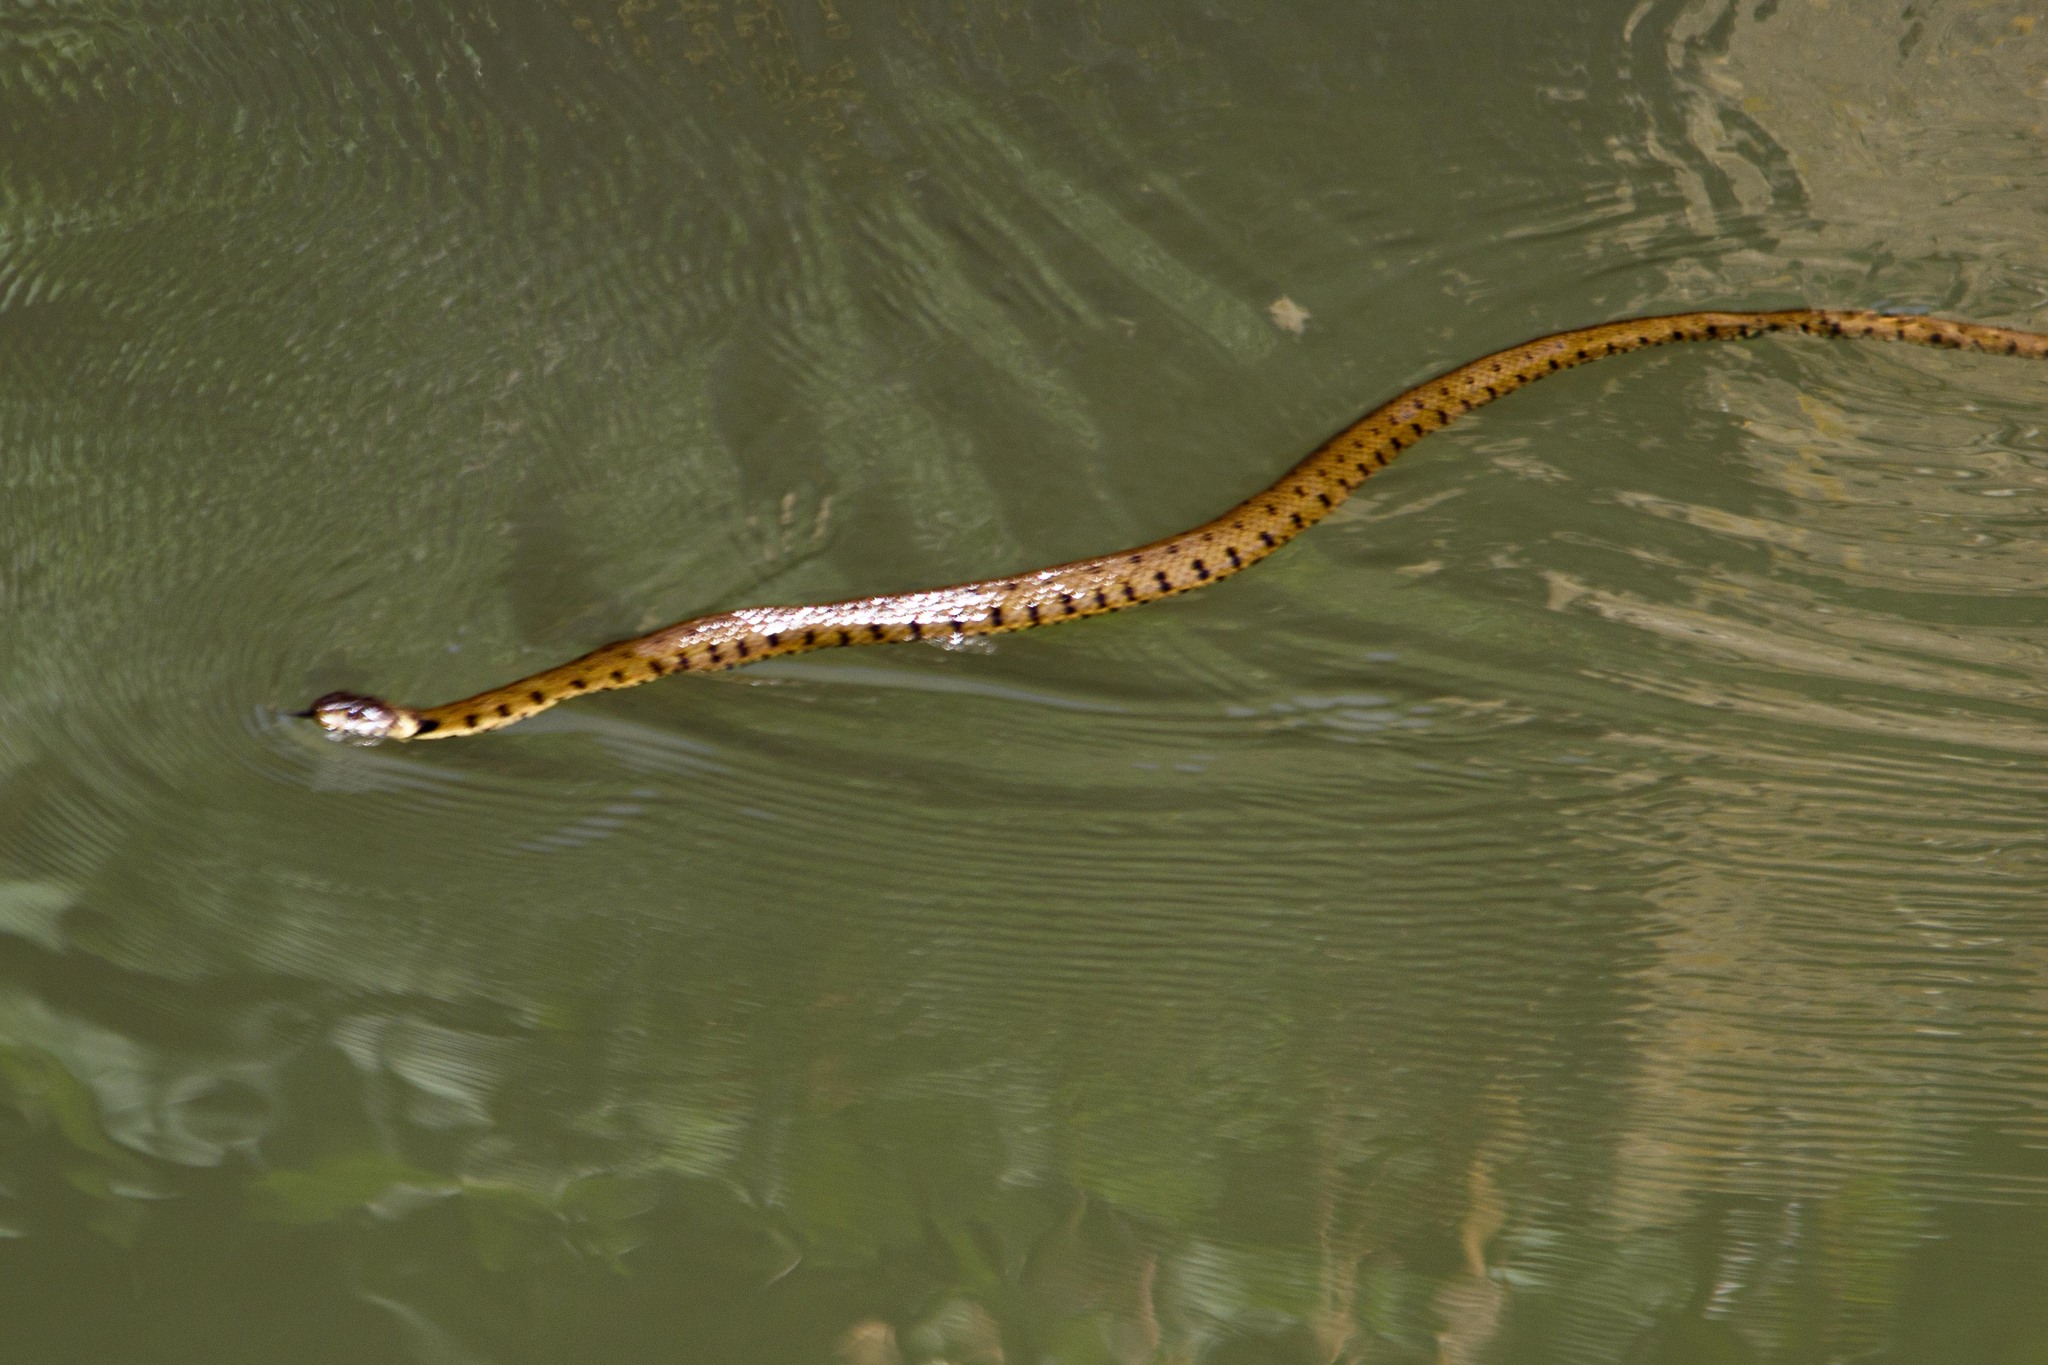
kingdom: Animalia
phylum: Chordata
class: Squamata
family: Colubridae
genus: Natrix
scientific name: Natrix helvetica
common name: Banded grass snake
